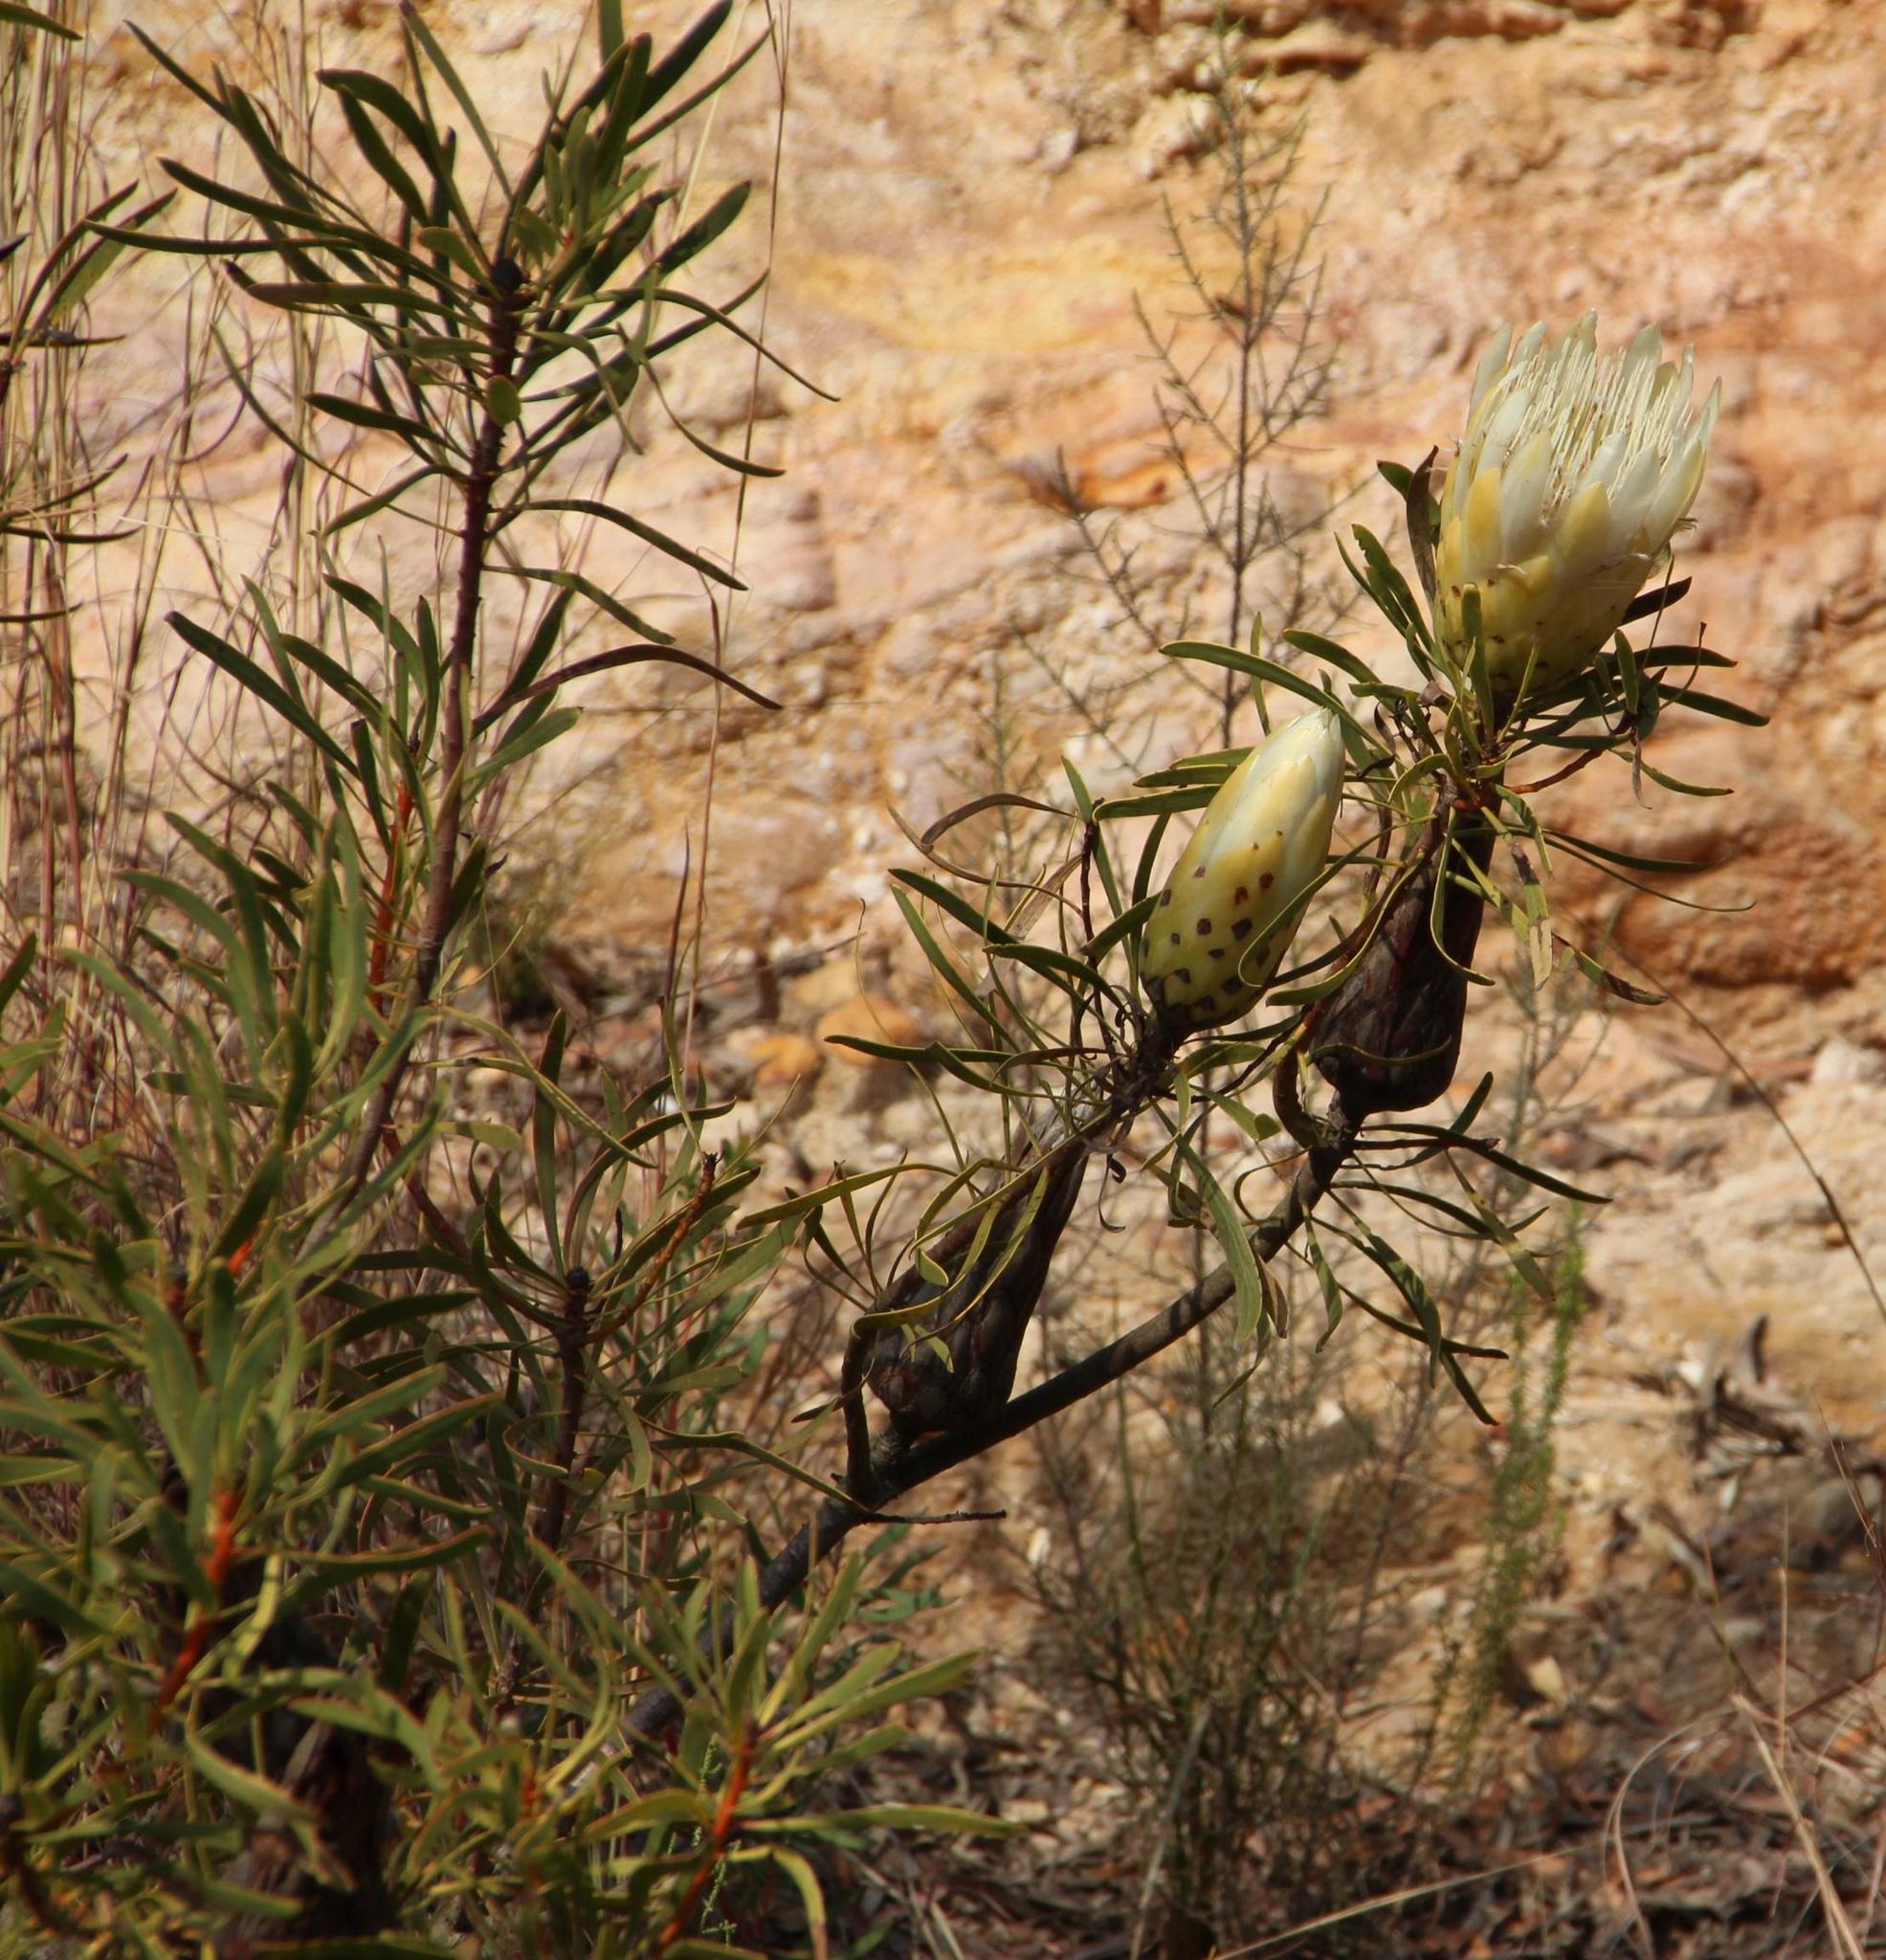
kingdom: Plantae
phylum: Tracheophyta
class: Magnoliopsida
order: Proteales
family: Proteaceae
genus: Protea
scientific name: Protea repens
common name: Sugarbush
